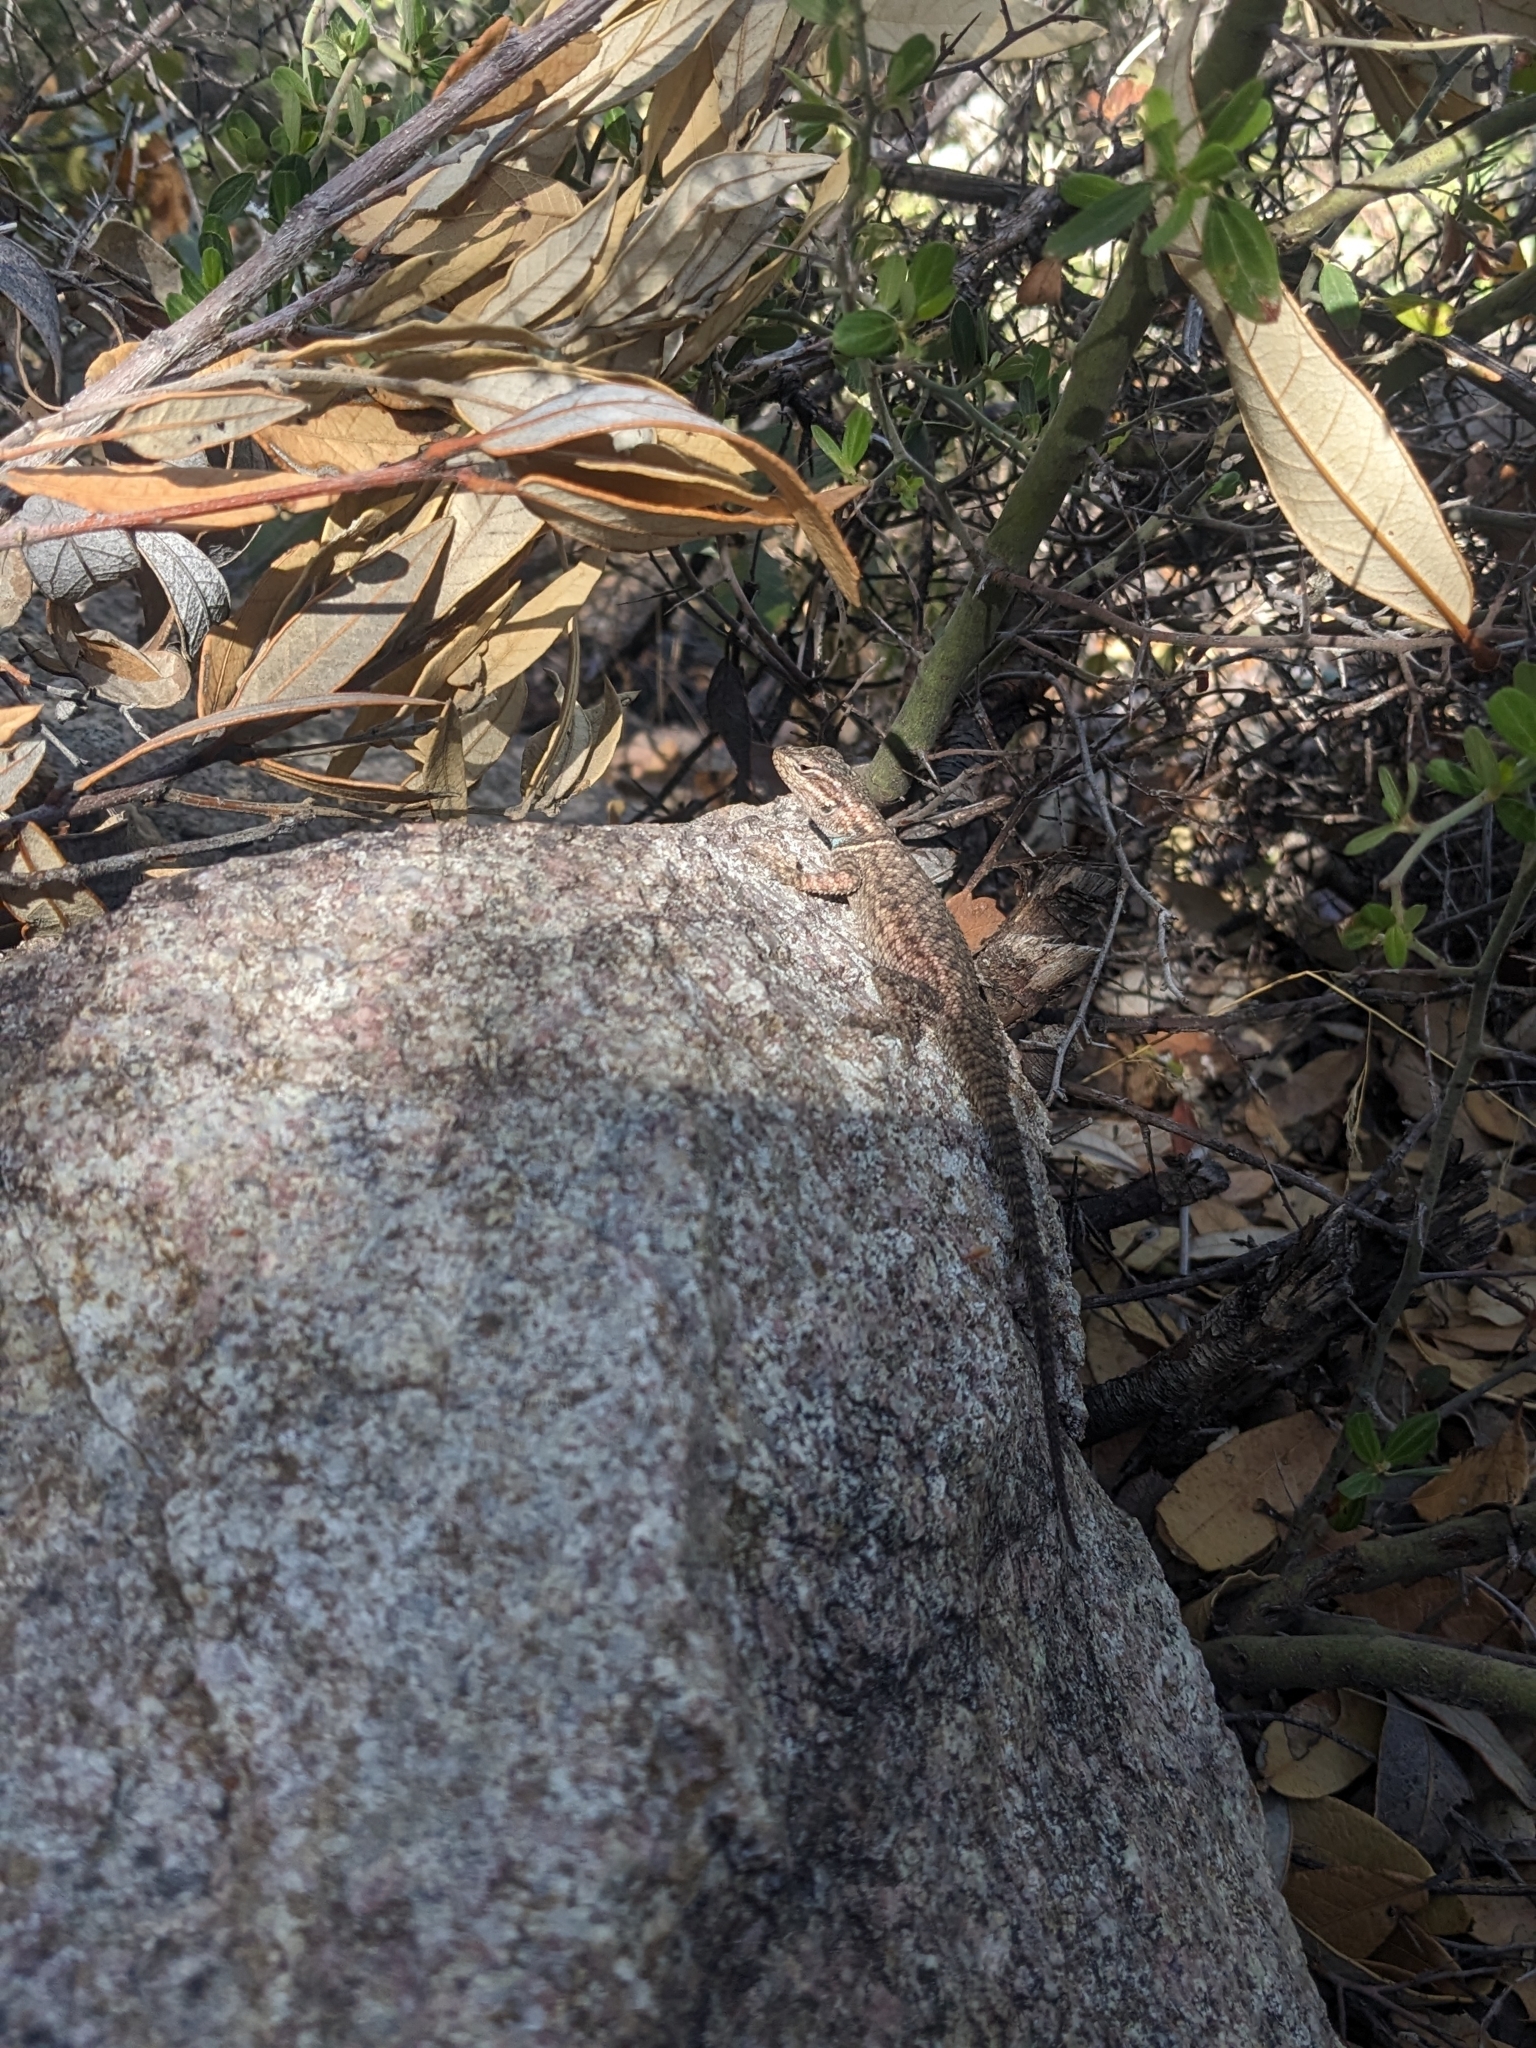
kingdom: Animalia
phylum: Chordata
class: Squamata
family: Phrynosomatidae
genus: Sceloporus
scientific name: Sceloporus jarrovii
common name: Yarrow's spiny lizard
